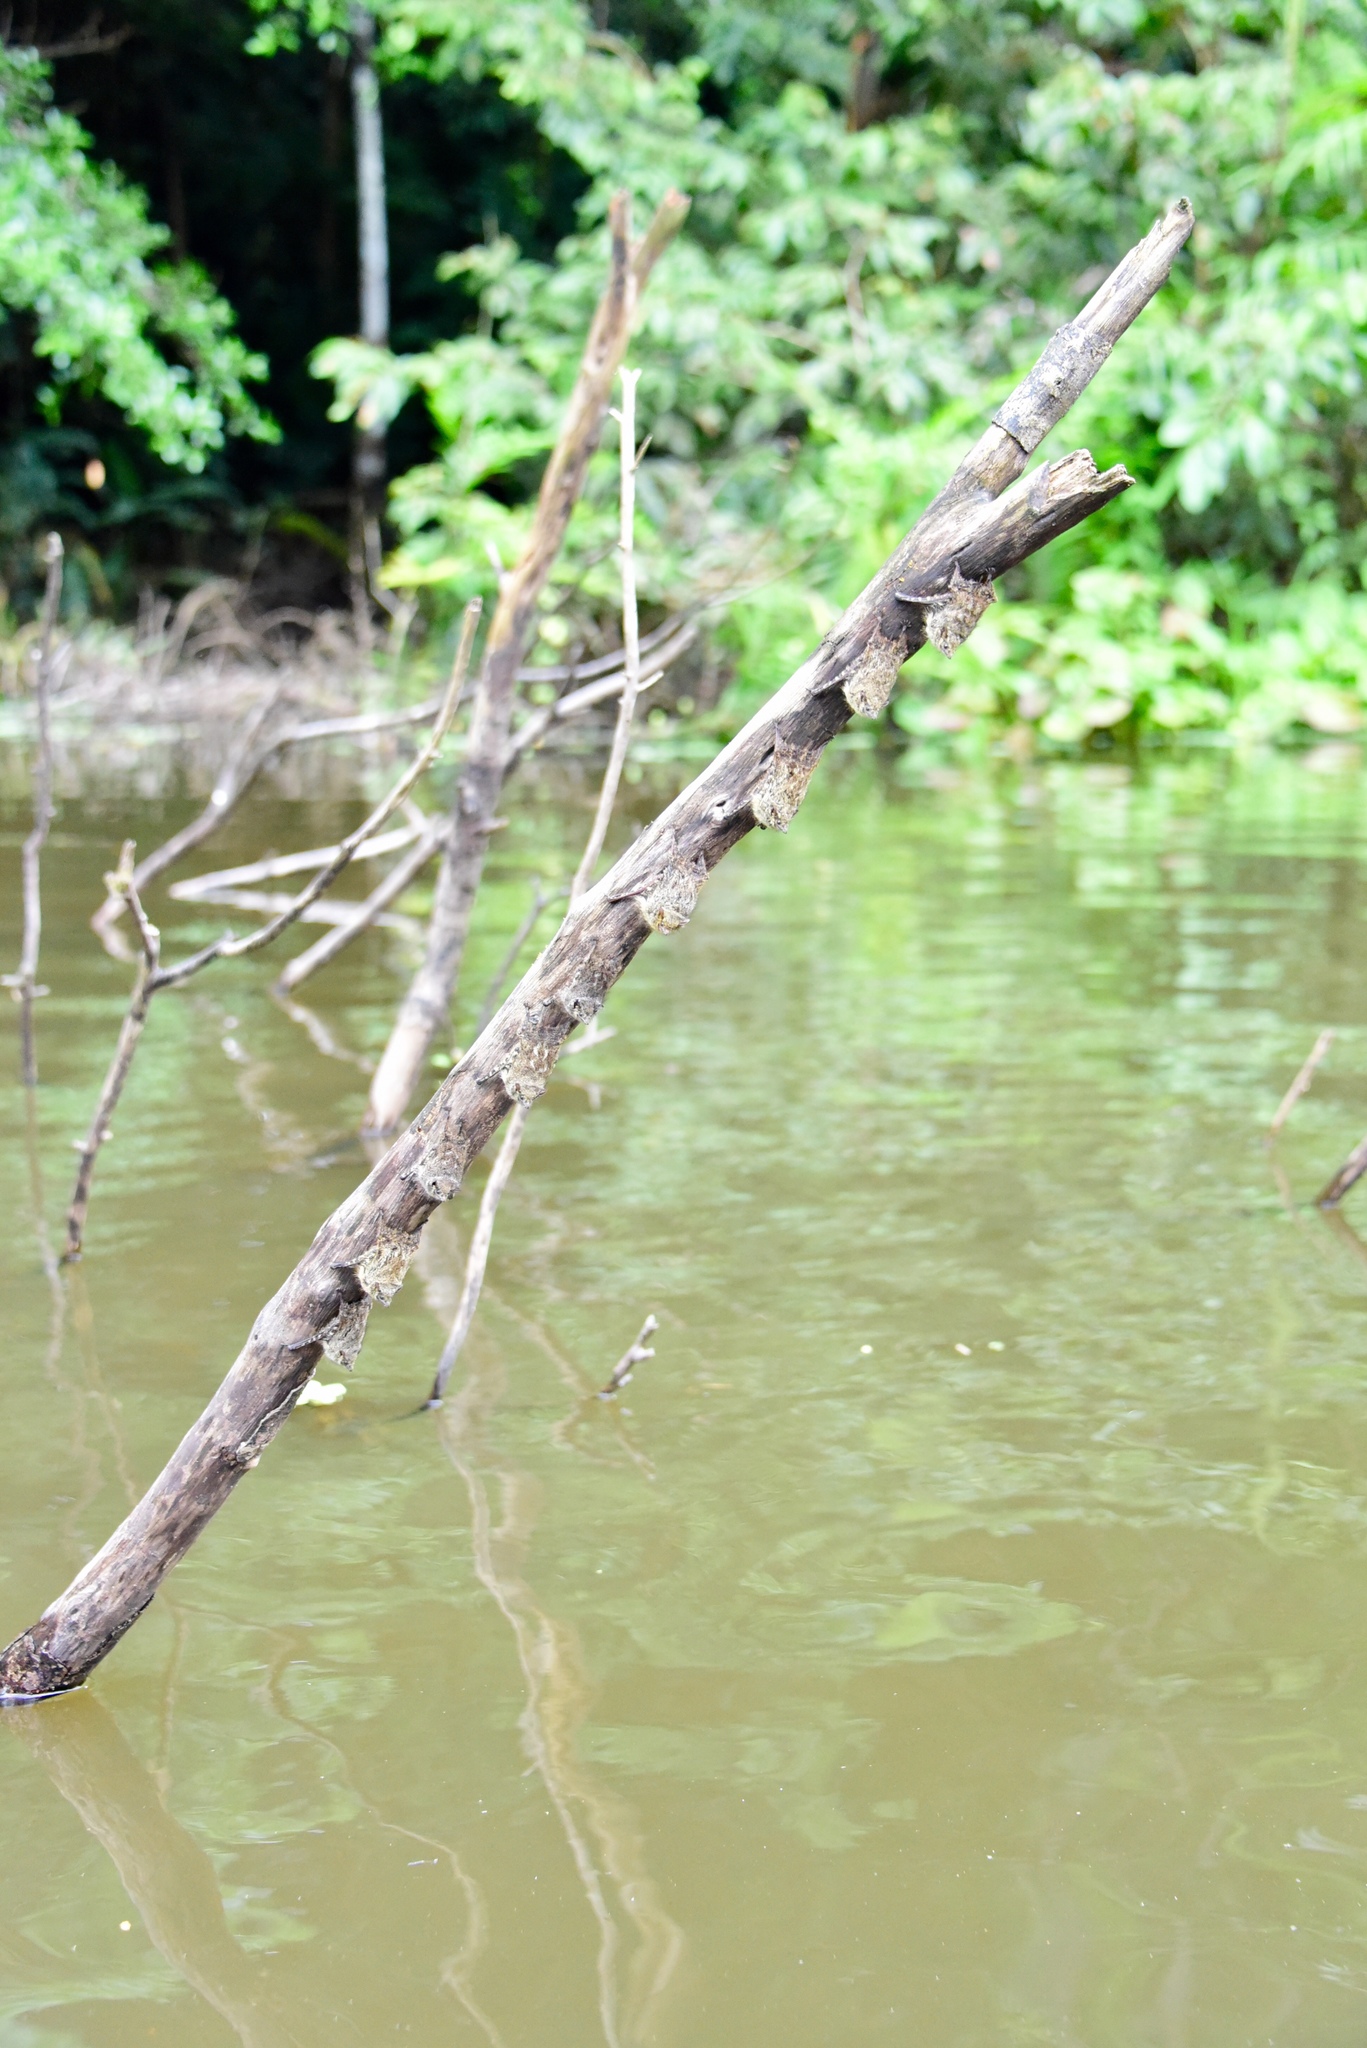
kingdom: Animalia
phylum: Chordata
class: Mammalia
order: Chiroptera
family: Emballonuridae
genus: Rhynchonycteris
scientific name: Rhynchonycteris naso
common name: Proboscis bat
